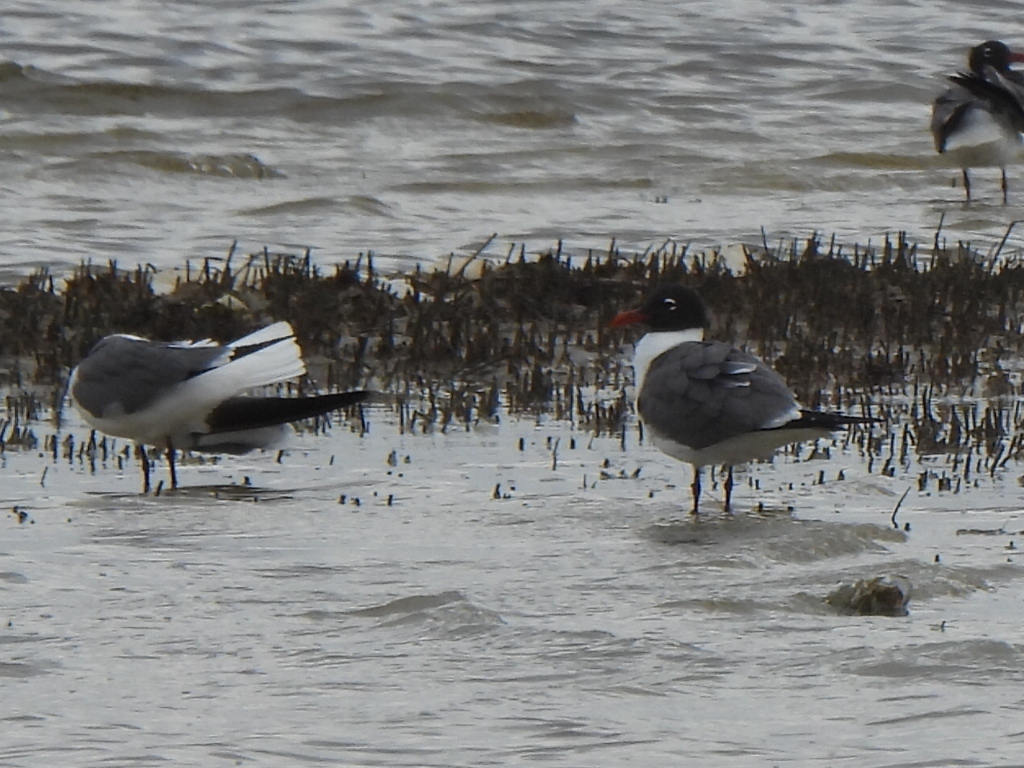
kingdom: Animalia
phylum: Chordata
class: Aves
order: Charadriiformes
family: Laridae
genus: Leucophaeus
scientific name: Leucophaeus atricilla
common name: Laughing gull
